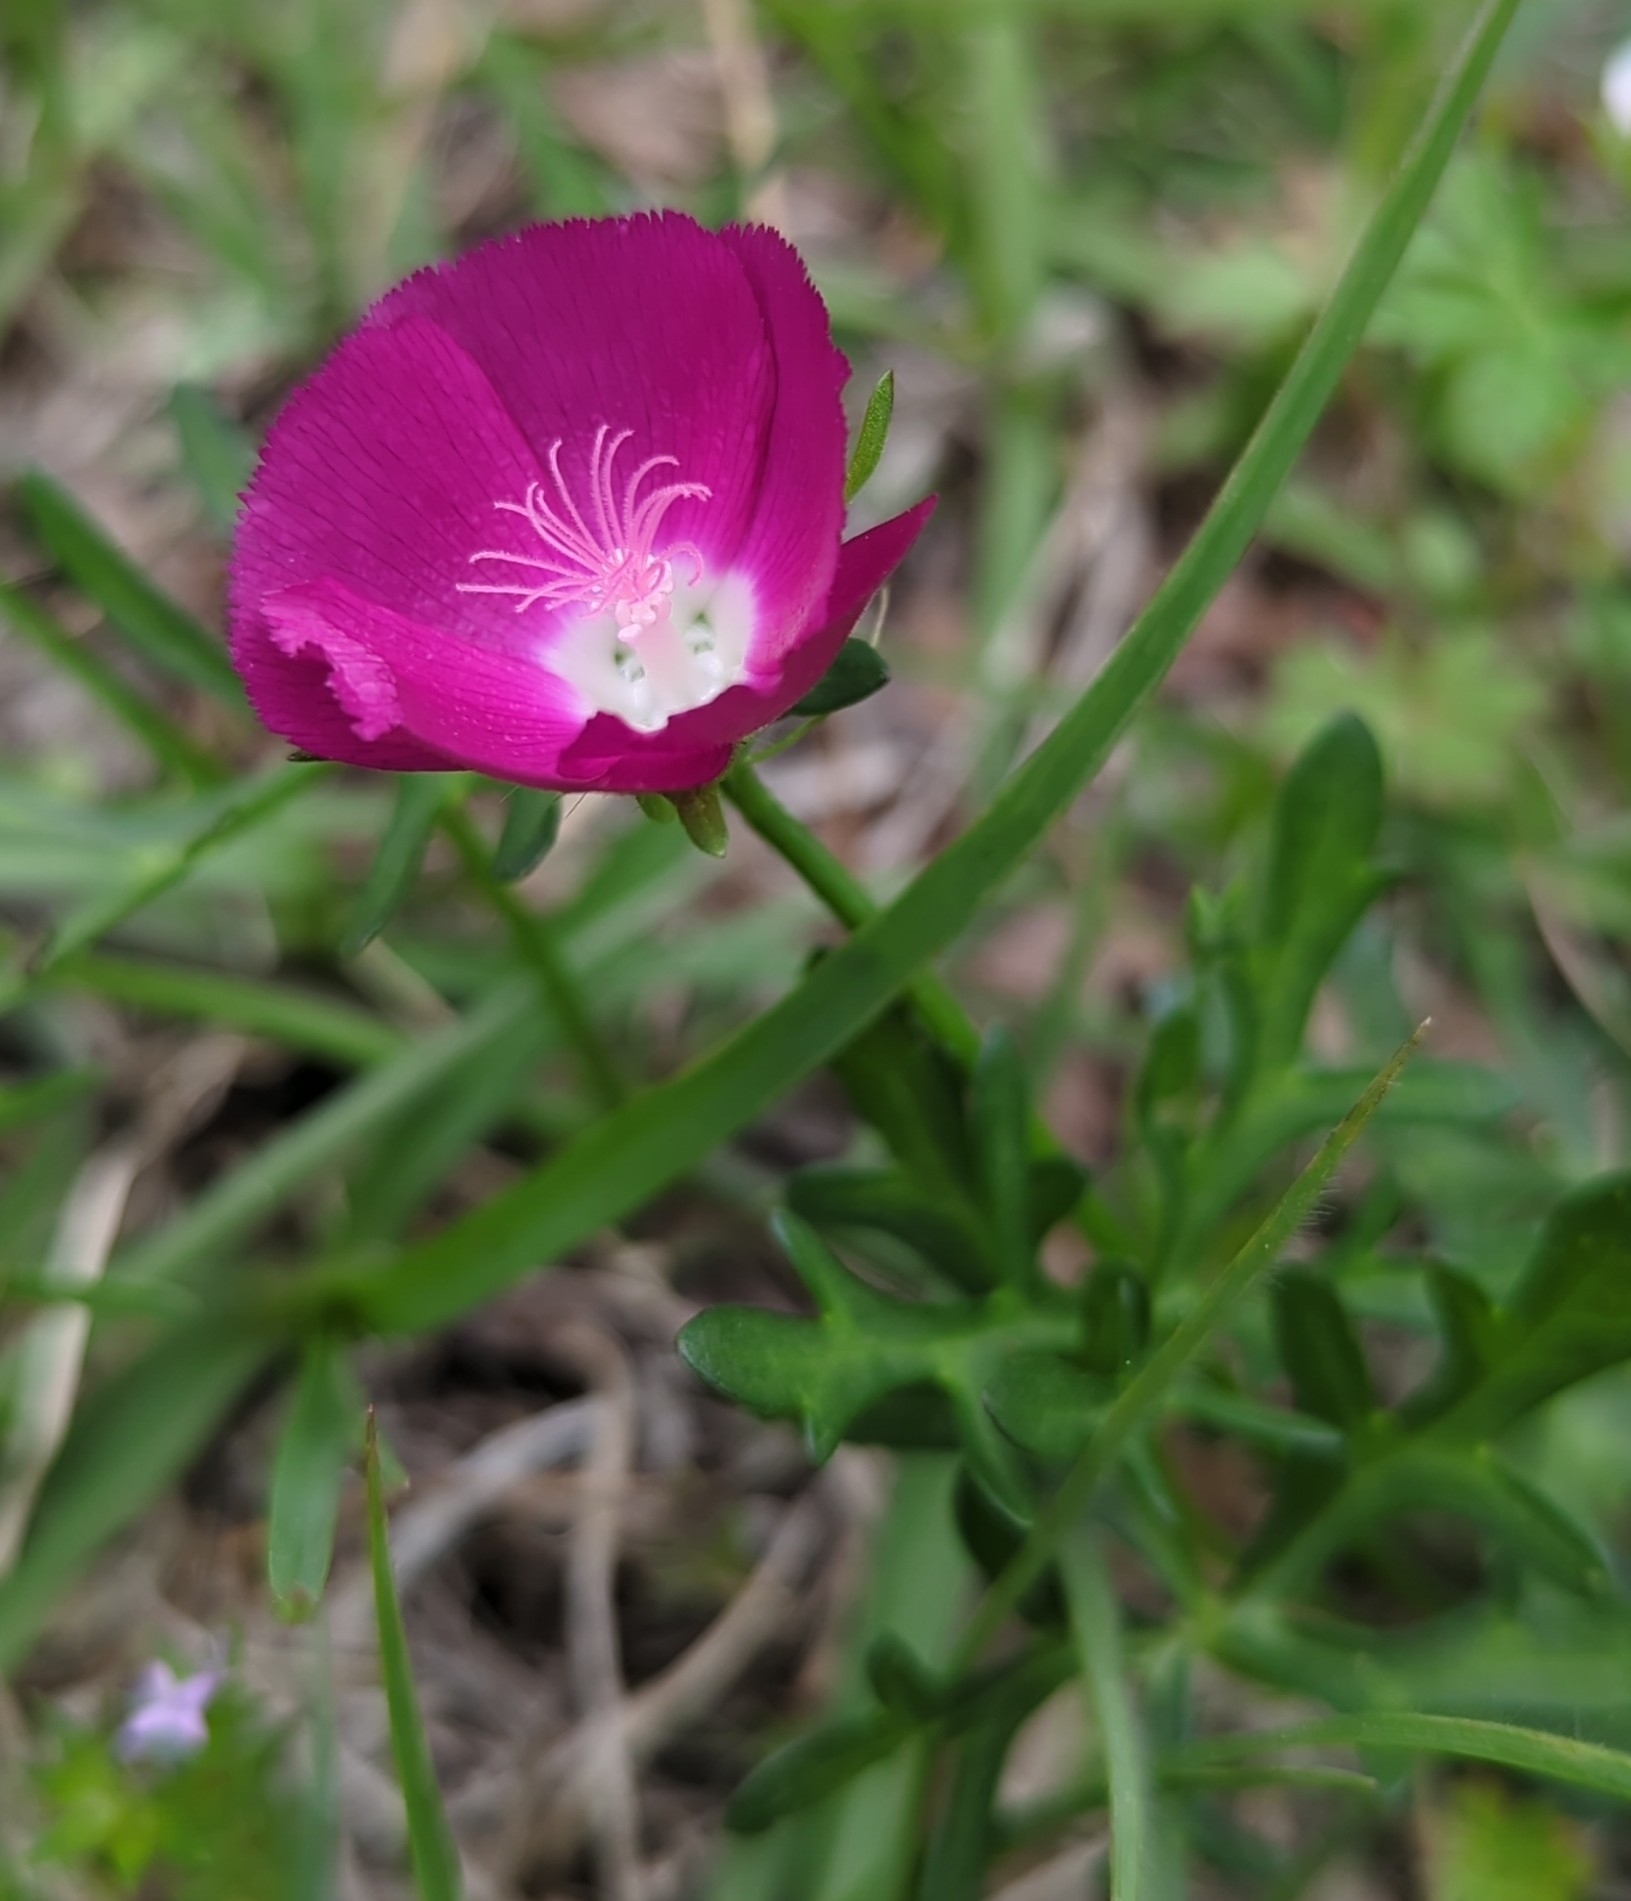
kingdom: Plantae
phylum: Tracheophyta
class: Magnoliopsida
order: Malvales
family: Malvaceae
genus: Callirhoe
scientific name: Callirhoe involucrata
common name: Purple poppy-mallow
